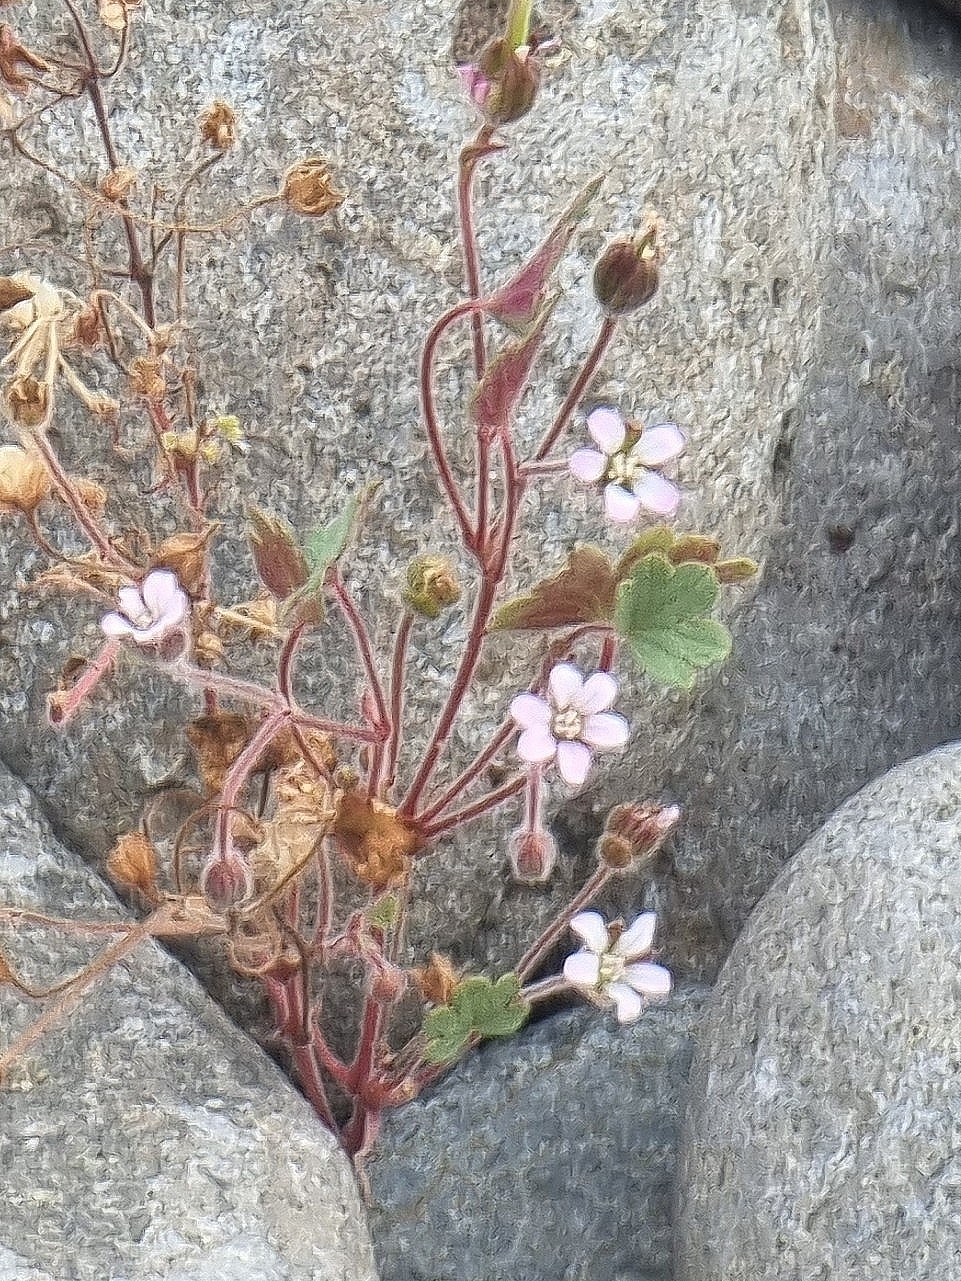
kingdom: Plantae
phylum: Tracheophyta
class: Magnoliopsida
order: Geraniales
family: Geraniaceae
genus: Geranium
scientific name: Geranium rotundifolium
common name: Round-leaved crane's-bill
